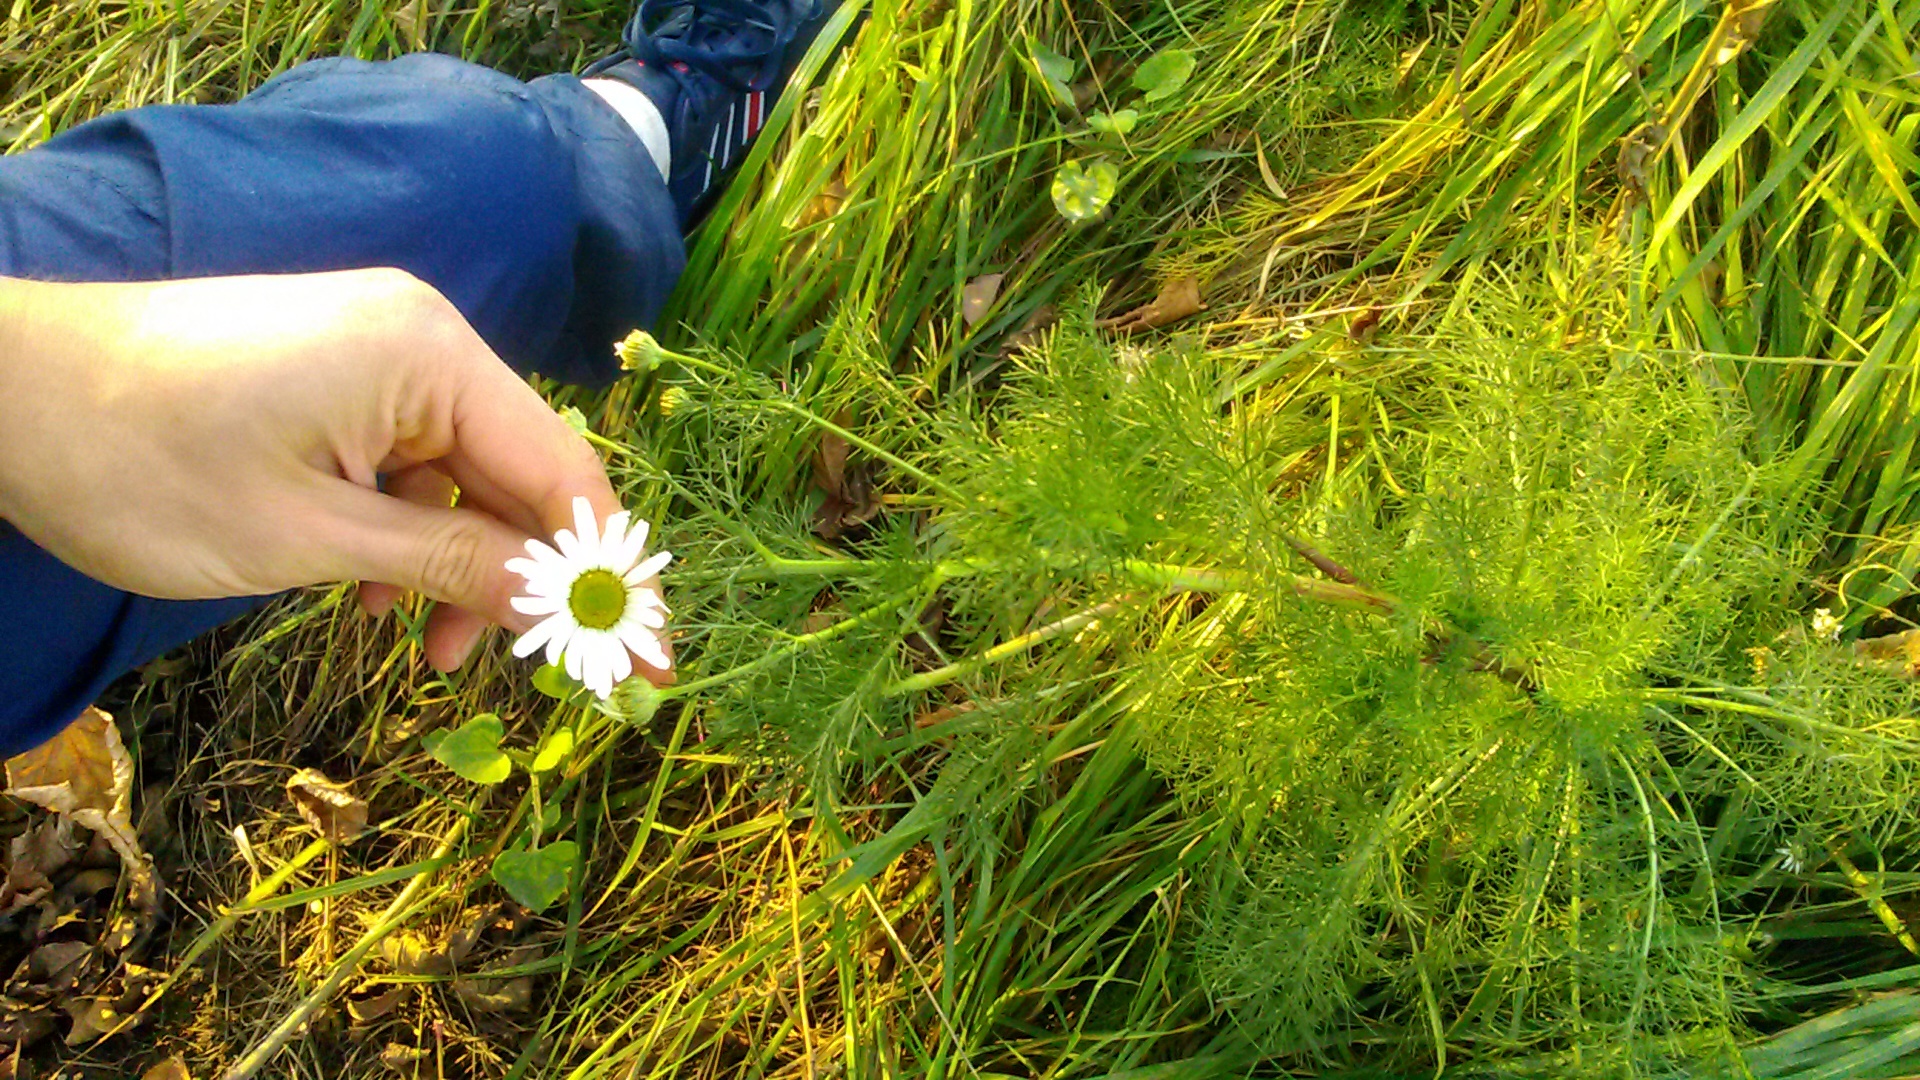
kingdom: Plantae
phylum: Tracheophyta
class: Magnoliopsida
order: Asterales
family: Asteraceae
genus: Tripleurospermum
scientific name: Tripleurospermum inodorum
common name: Scentless mayweed
